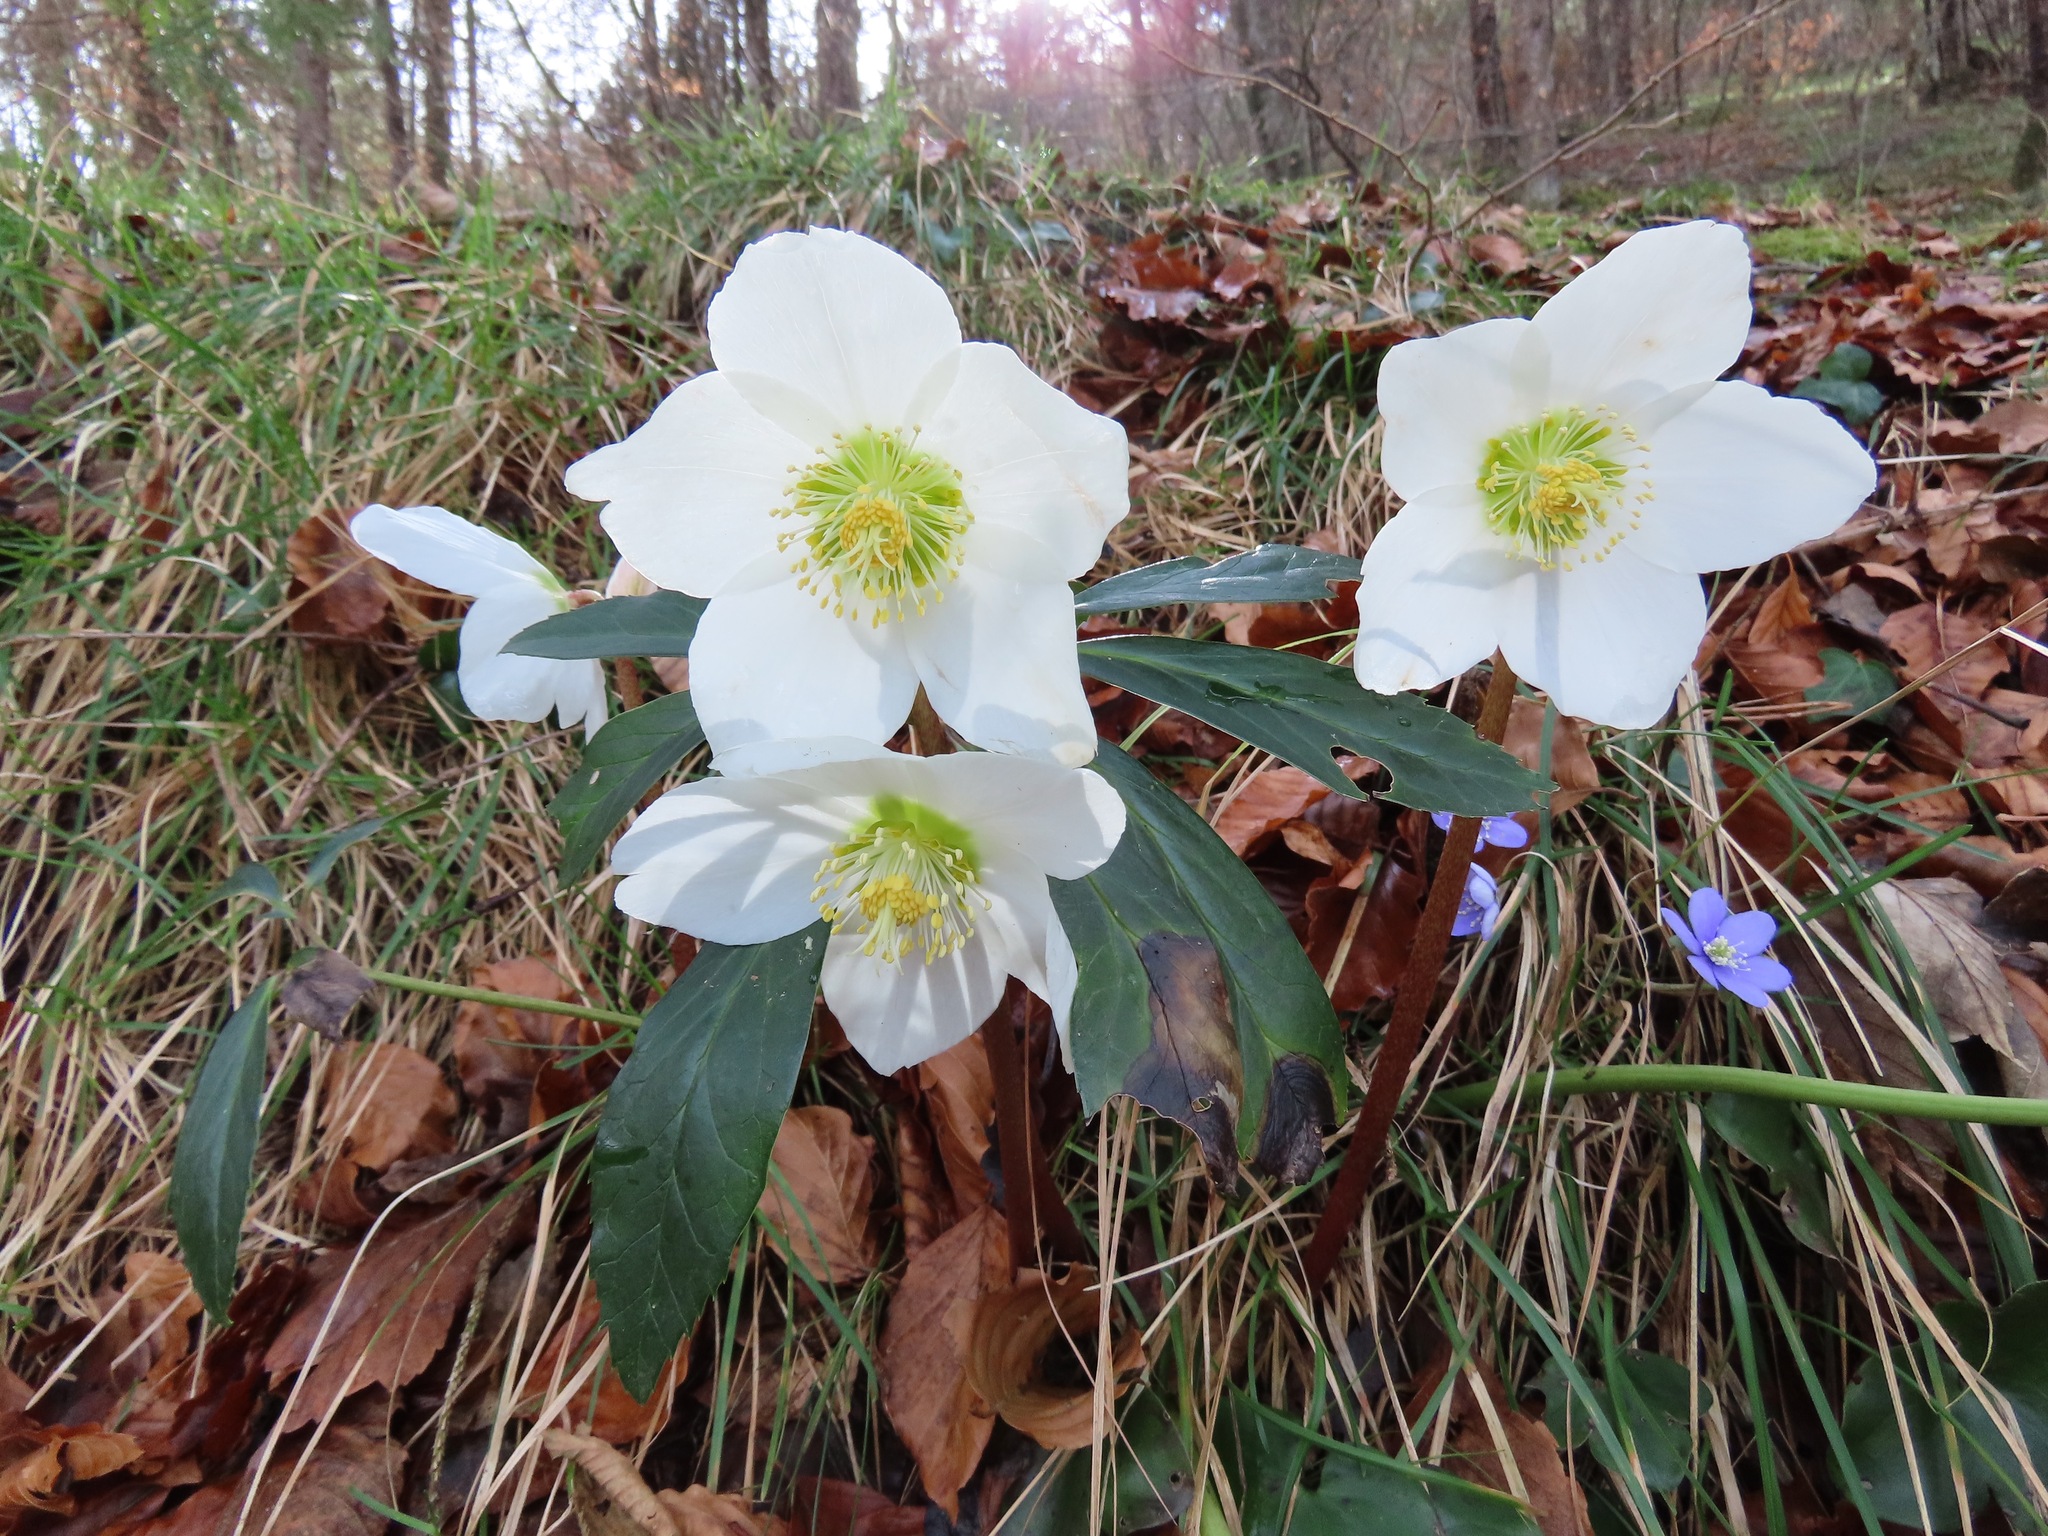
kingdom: Plantae
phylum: Tracheophyta
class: Magnoliopsida
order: Ranunculales
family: Ranunculaceae
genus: Helleborus
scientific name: Helleborus niger
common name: Black hellebore
